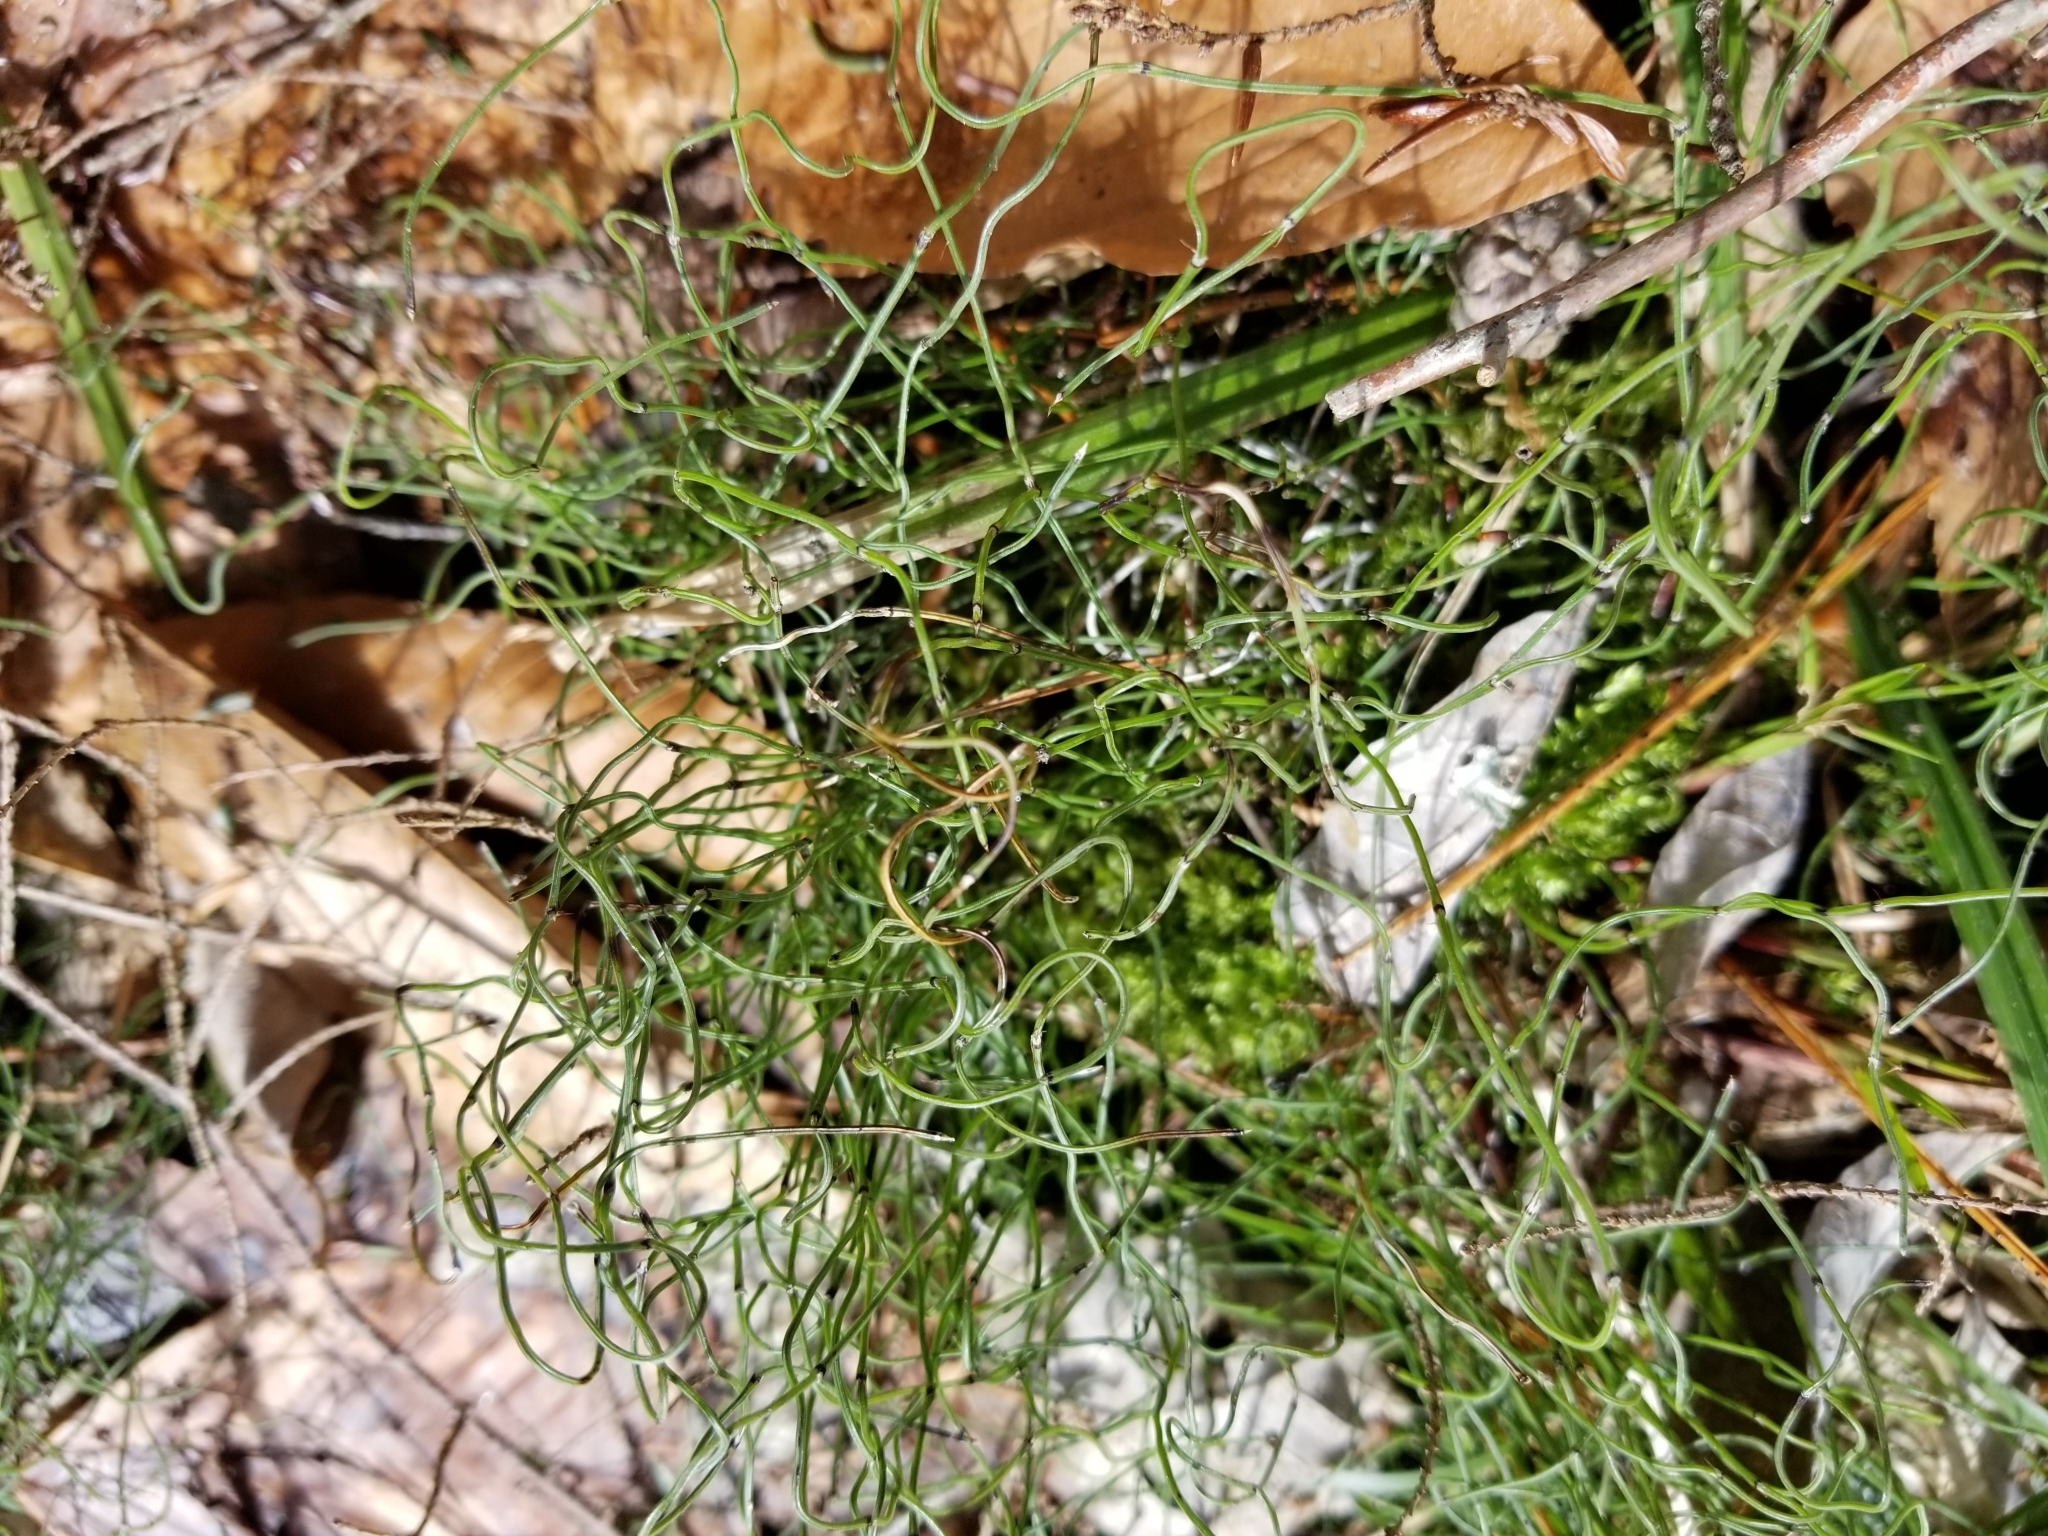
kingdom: Plantae
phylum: Tracheophyta
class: Polypodiopsida
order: Equisetales
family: Equisetaceae
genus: Equisetum
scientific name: Equisetum scirpoides
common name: Delicate horsetail
